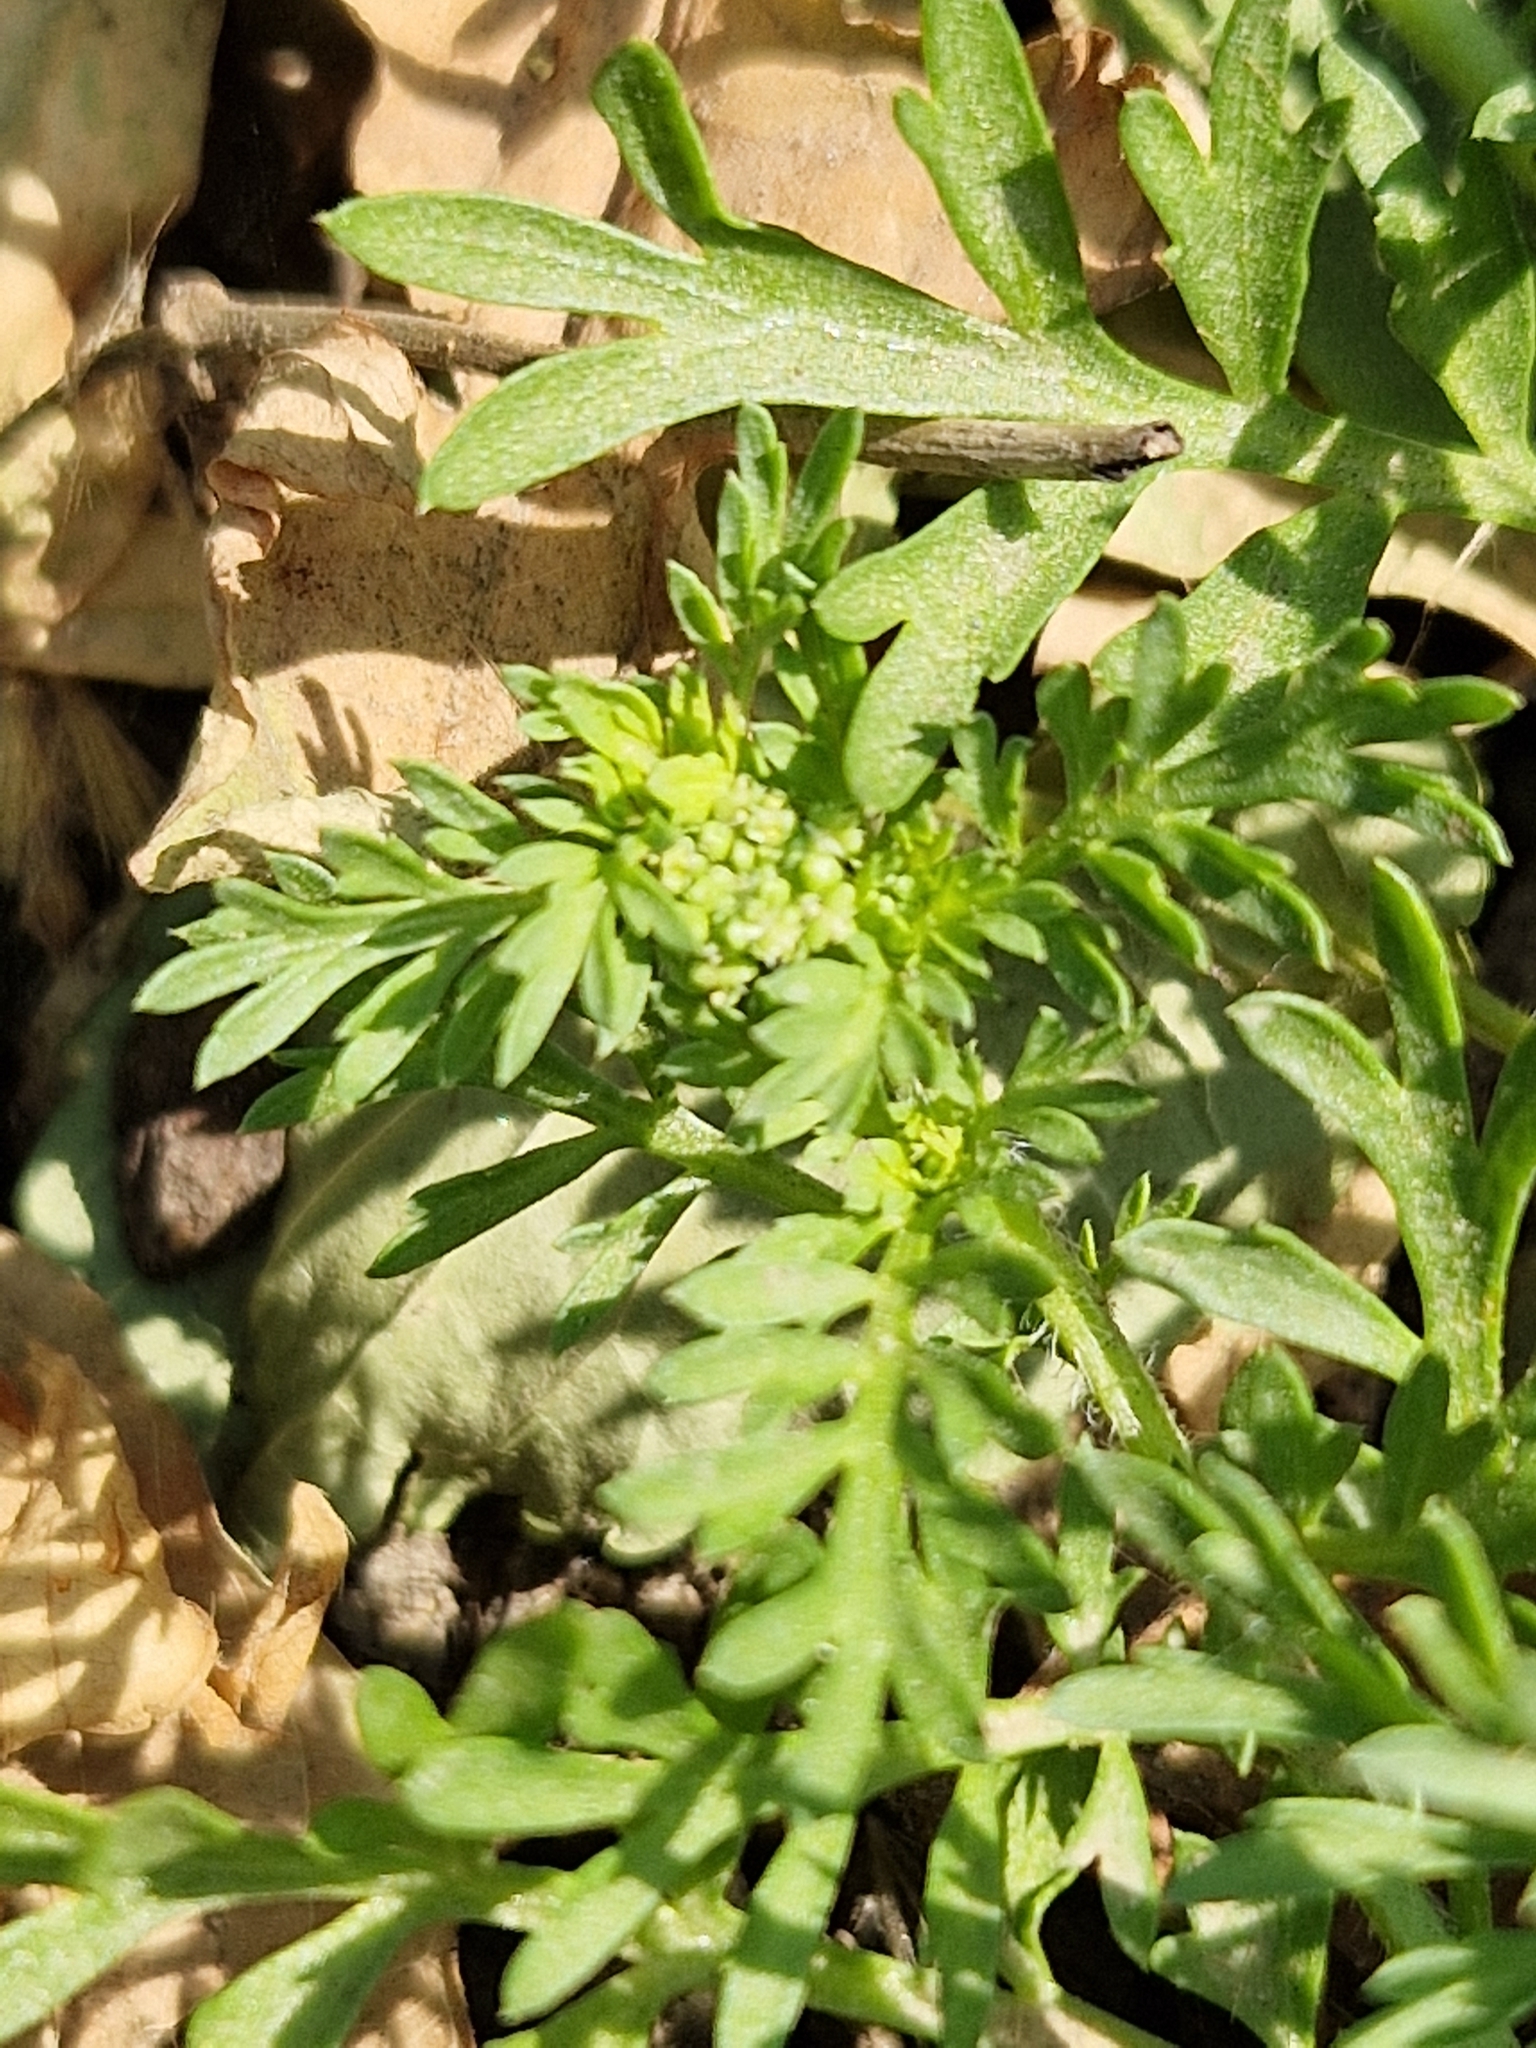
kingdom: Plantae
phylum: Tracheophyta
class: Magnoliopsida
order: Brassicales
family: Brassicaceae
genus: Lepidium
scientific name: Lepidium didymum
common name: Lesser swinecress
